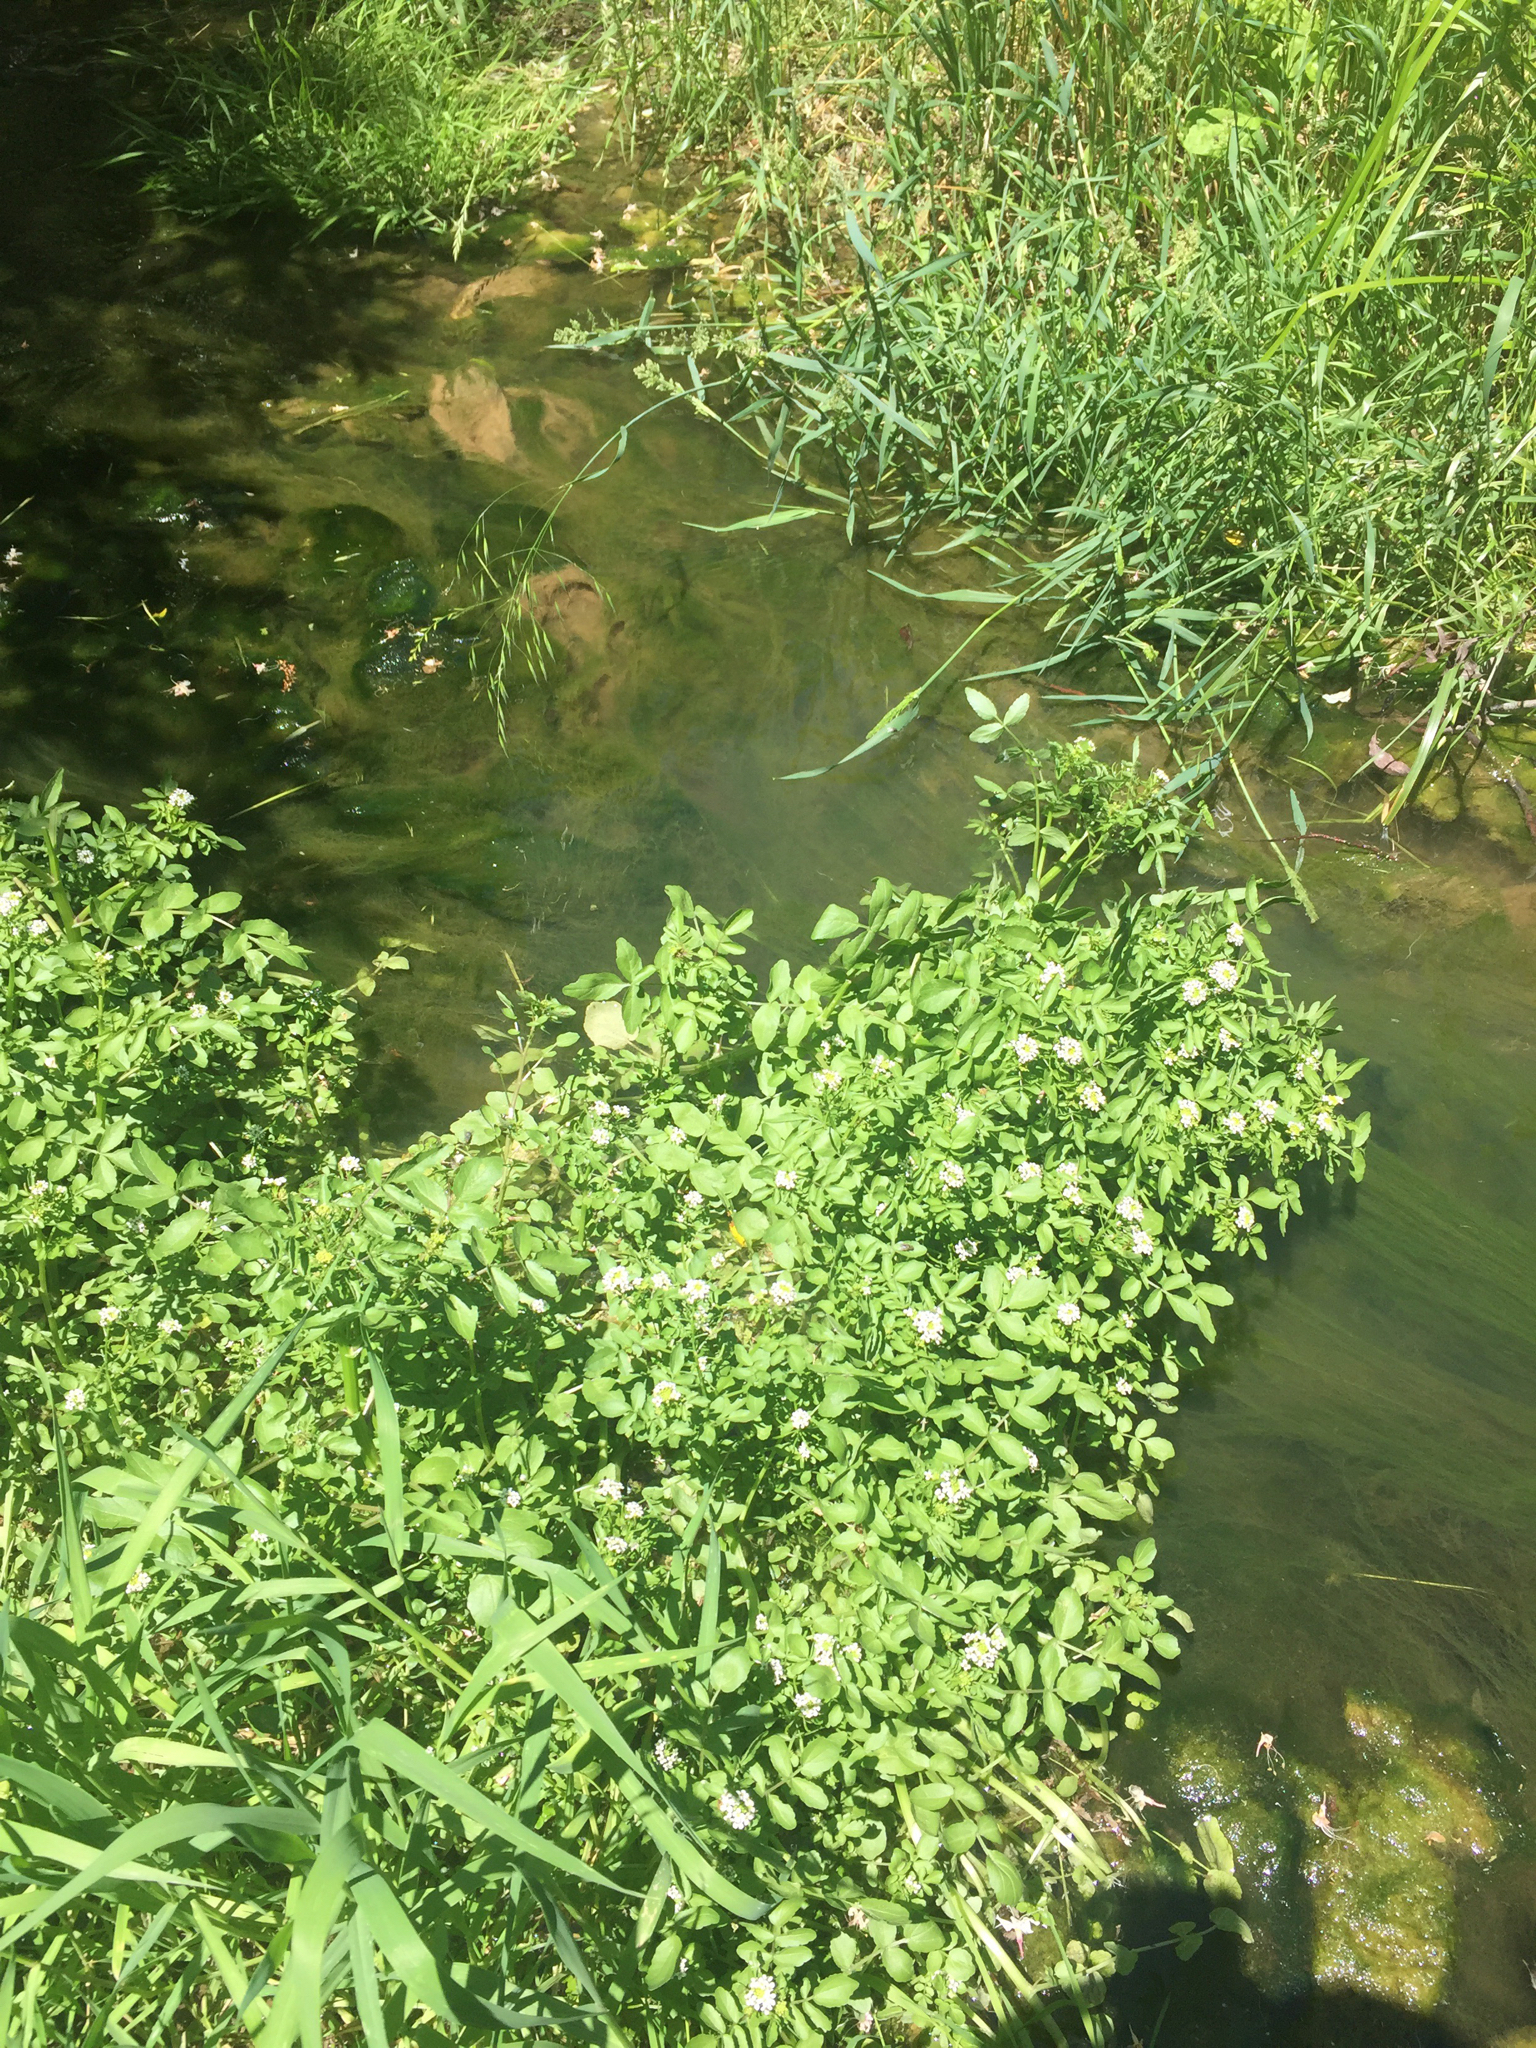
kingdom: Plantae
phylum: Tracheophyta
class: Magnoliopsida
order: Brassicales
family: Brassicaceae
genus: Nasturtium
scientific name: Nasturtium officinale
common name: Watercress
